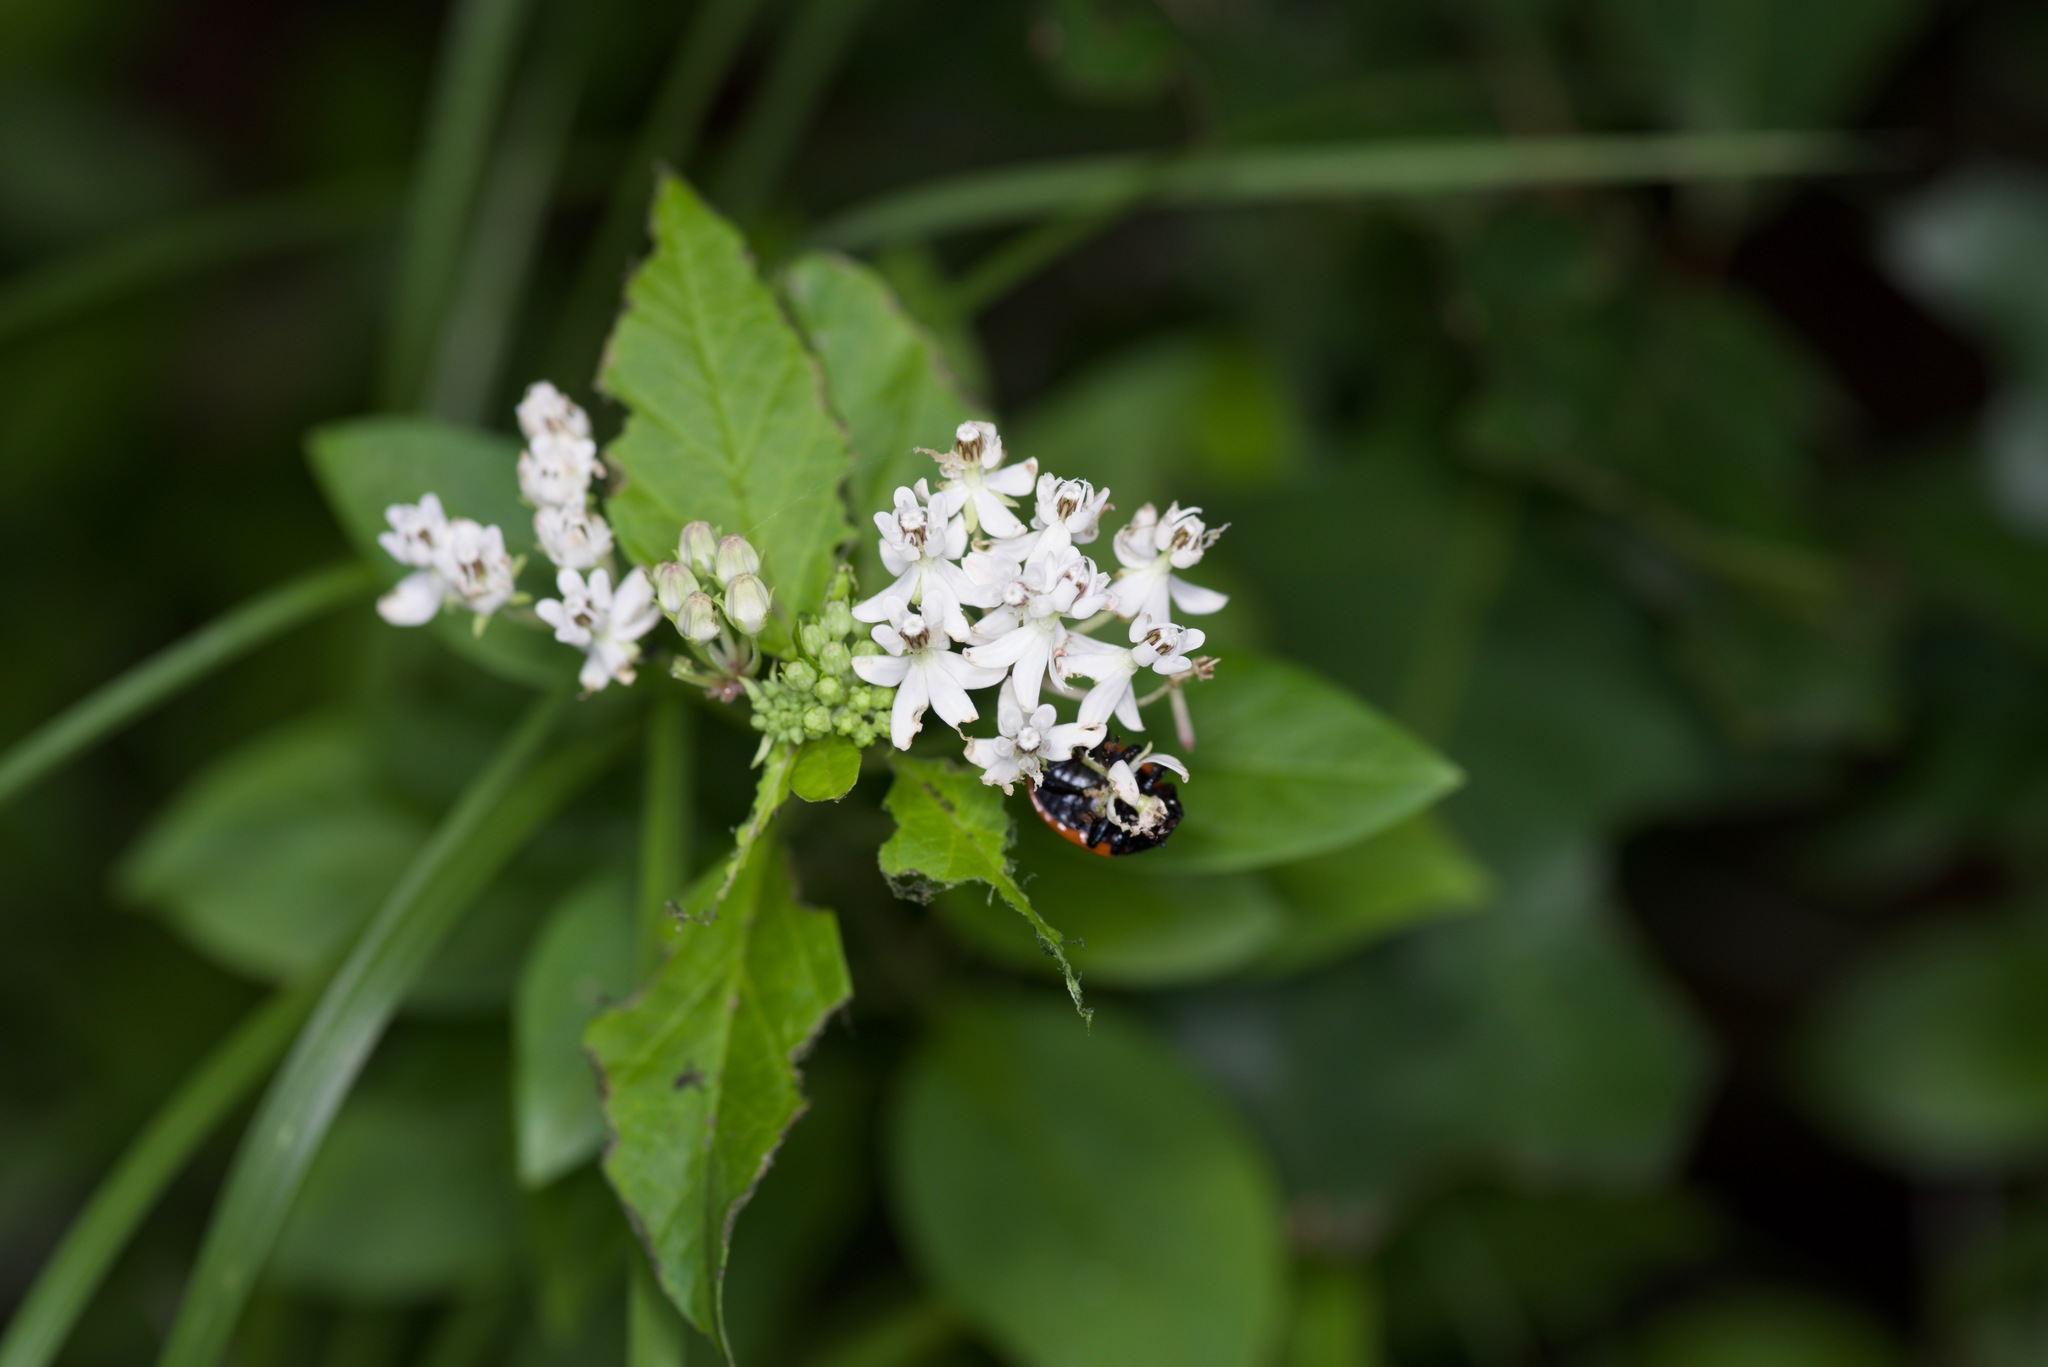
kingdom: Plantae
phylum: Tracheophyta
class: Magnoliopsida
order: Gentianales
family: Apocynaceae
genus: Asclepias
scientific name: Asclepias texana
